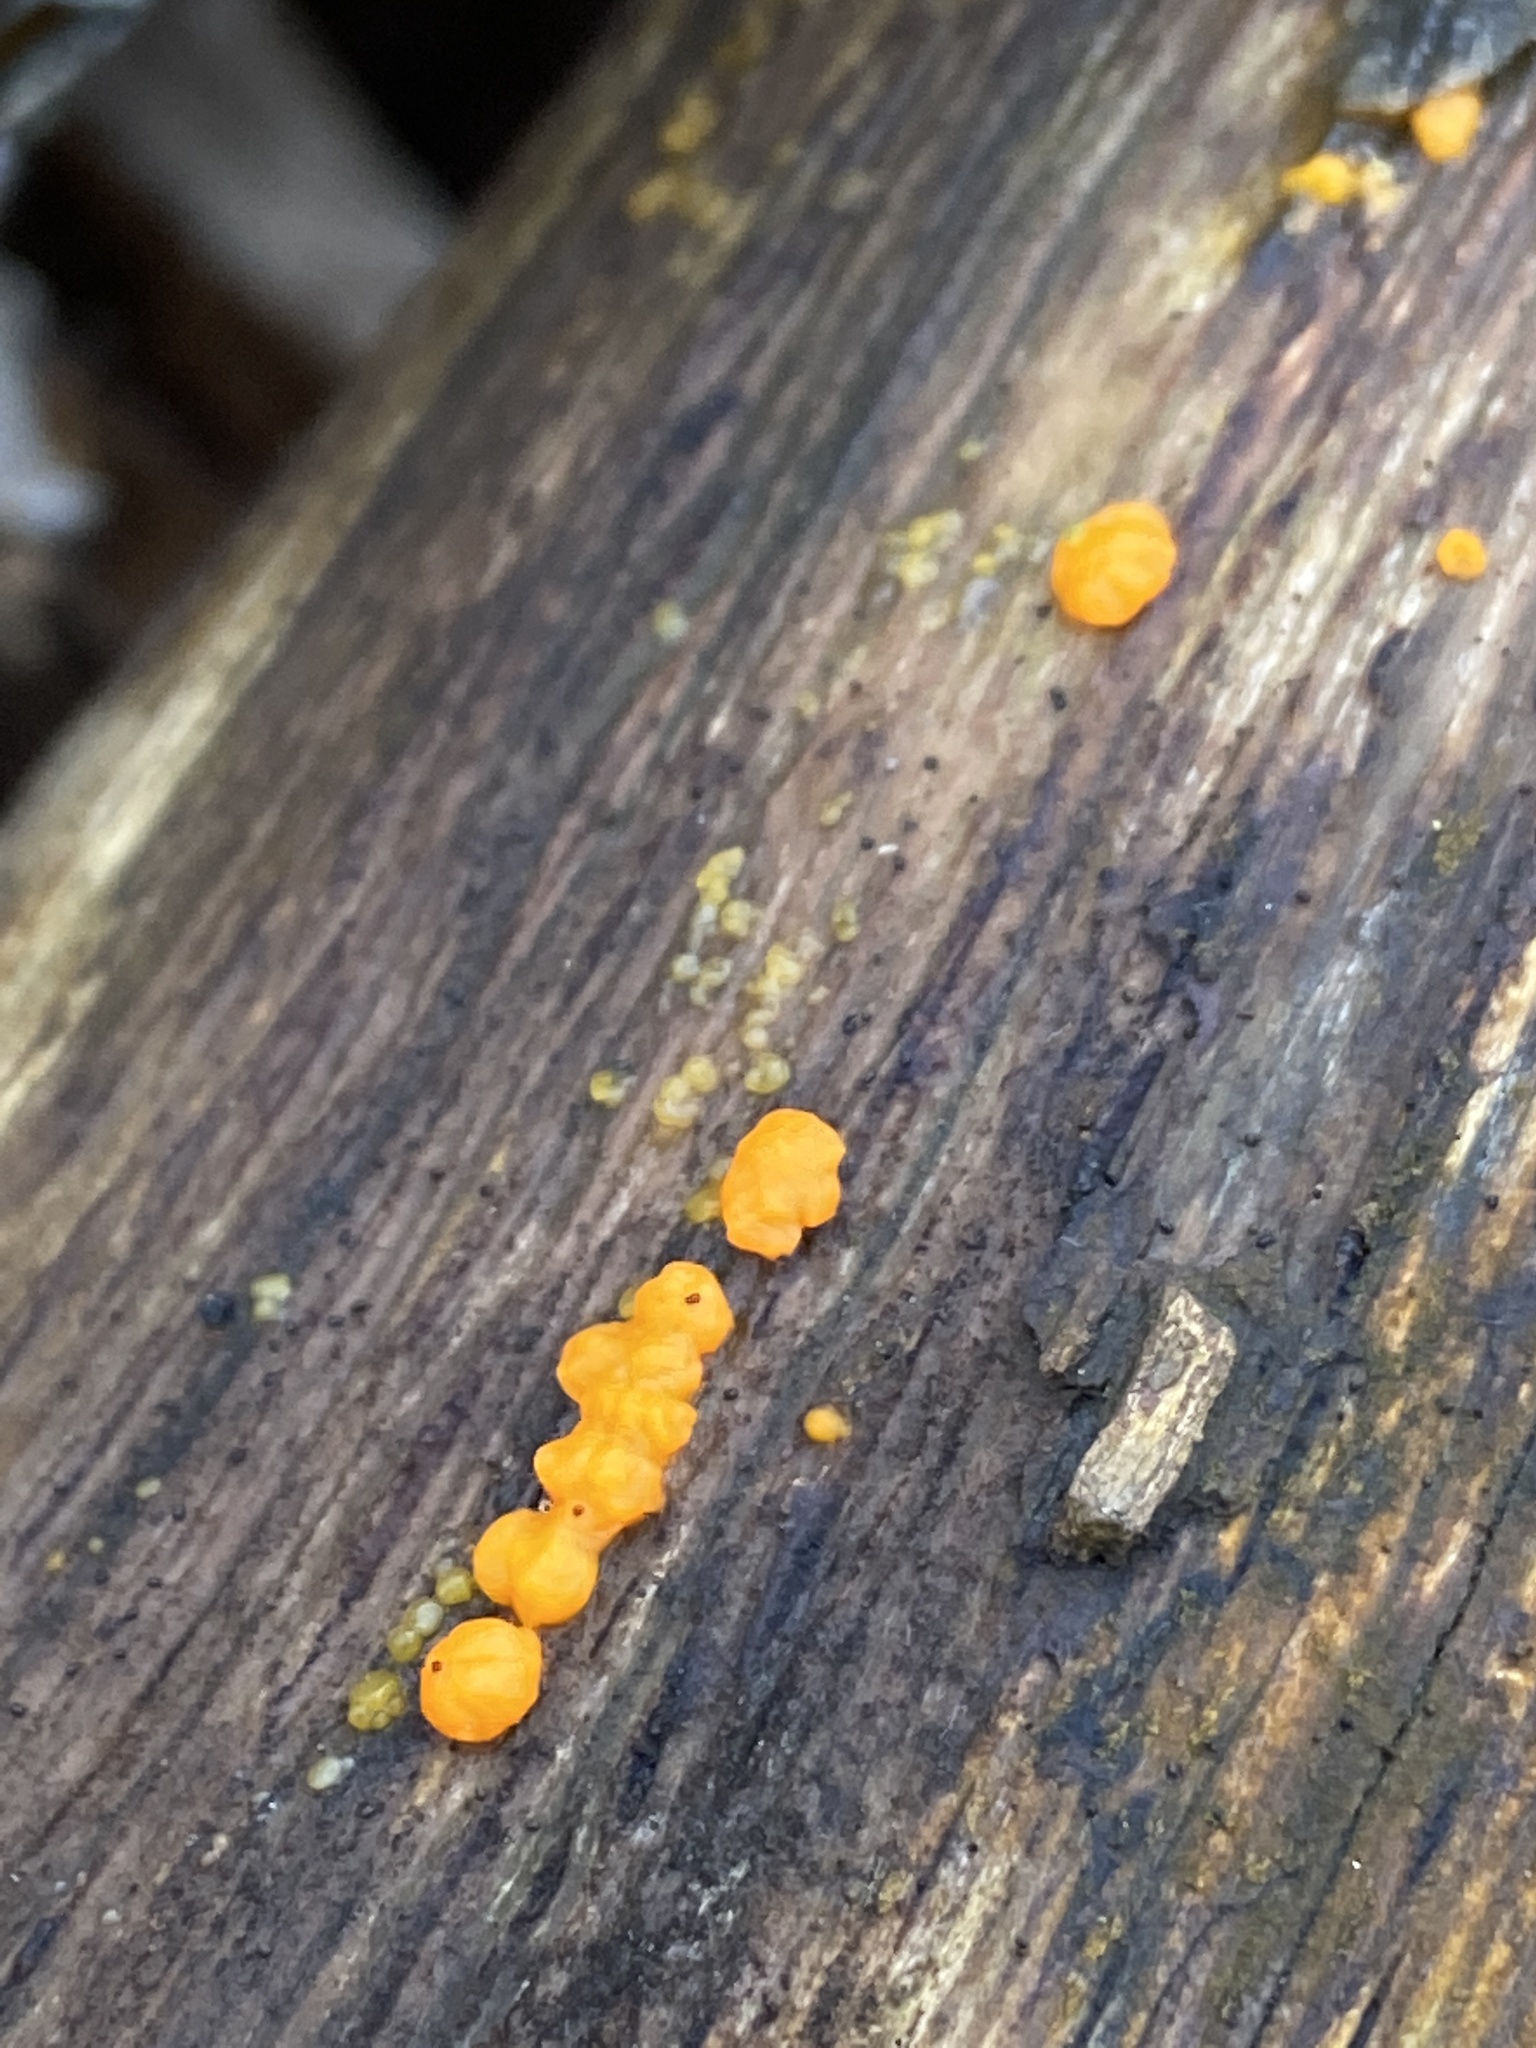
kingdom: Fungi
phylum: Basidiomycota
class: Dacrymycetes
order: Dacrymycetales
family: Dacrymycetaceae
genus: Dacrymyces
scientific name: Dacrymyces stillatus
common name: Common jelly spot
